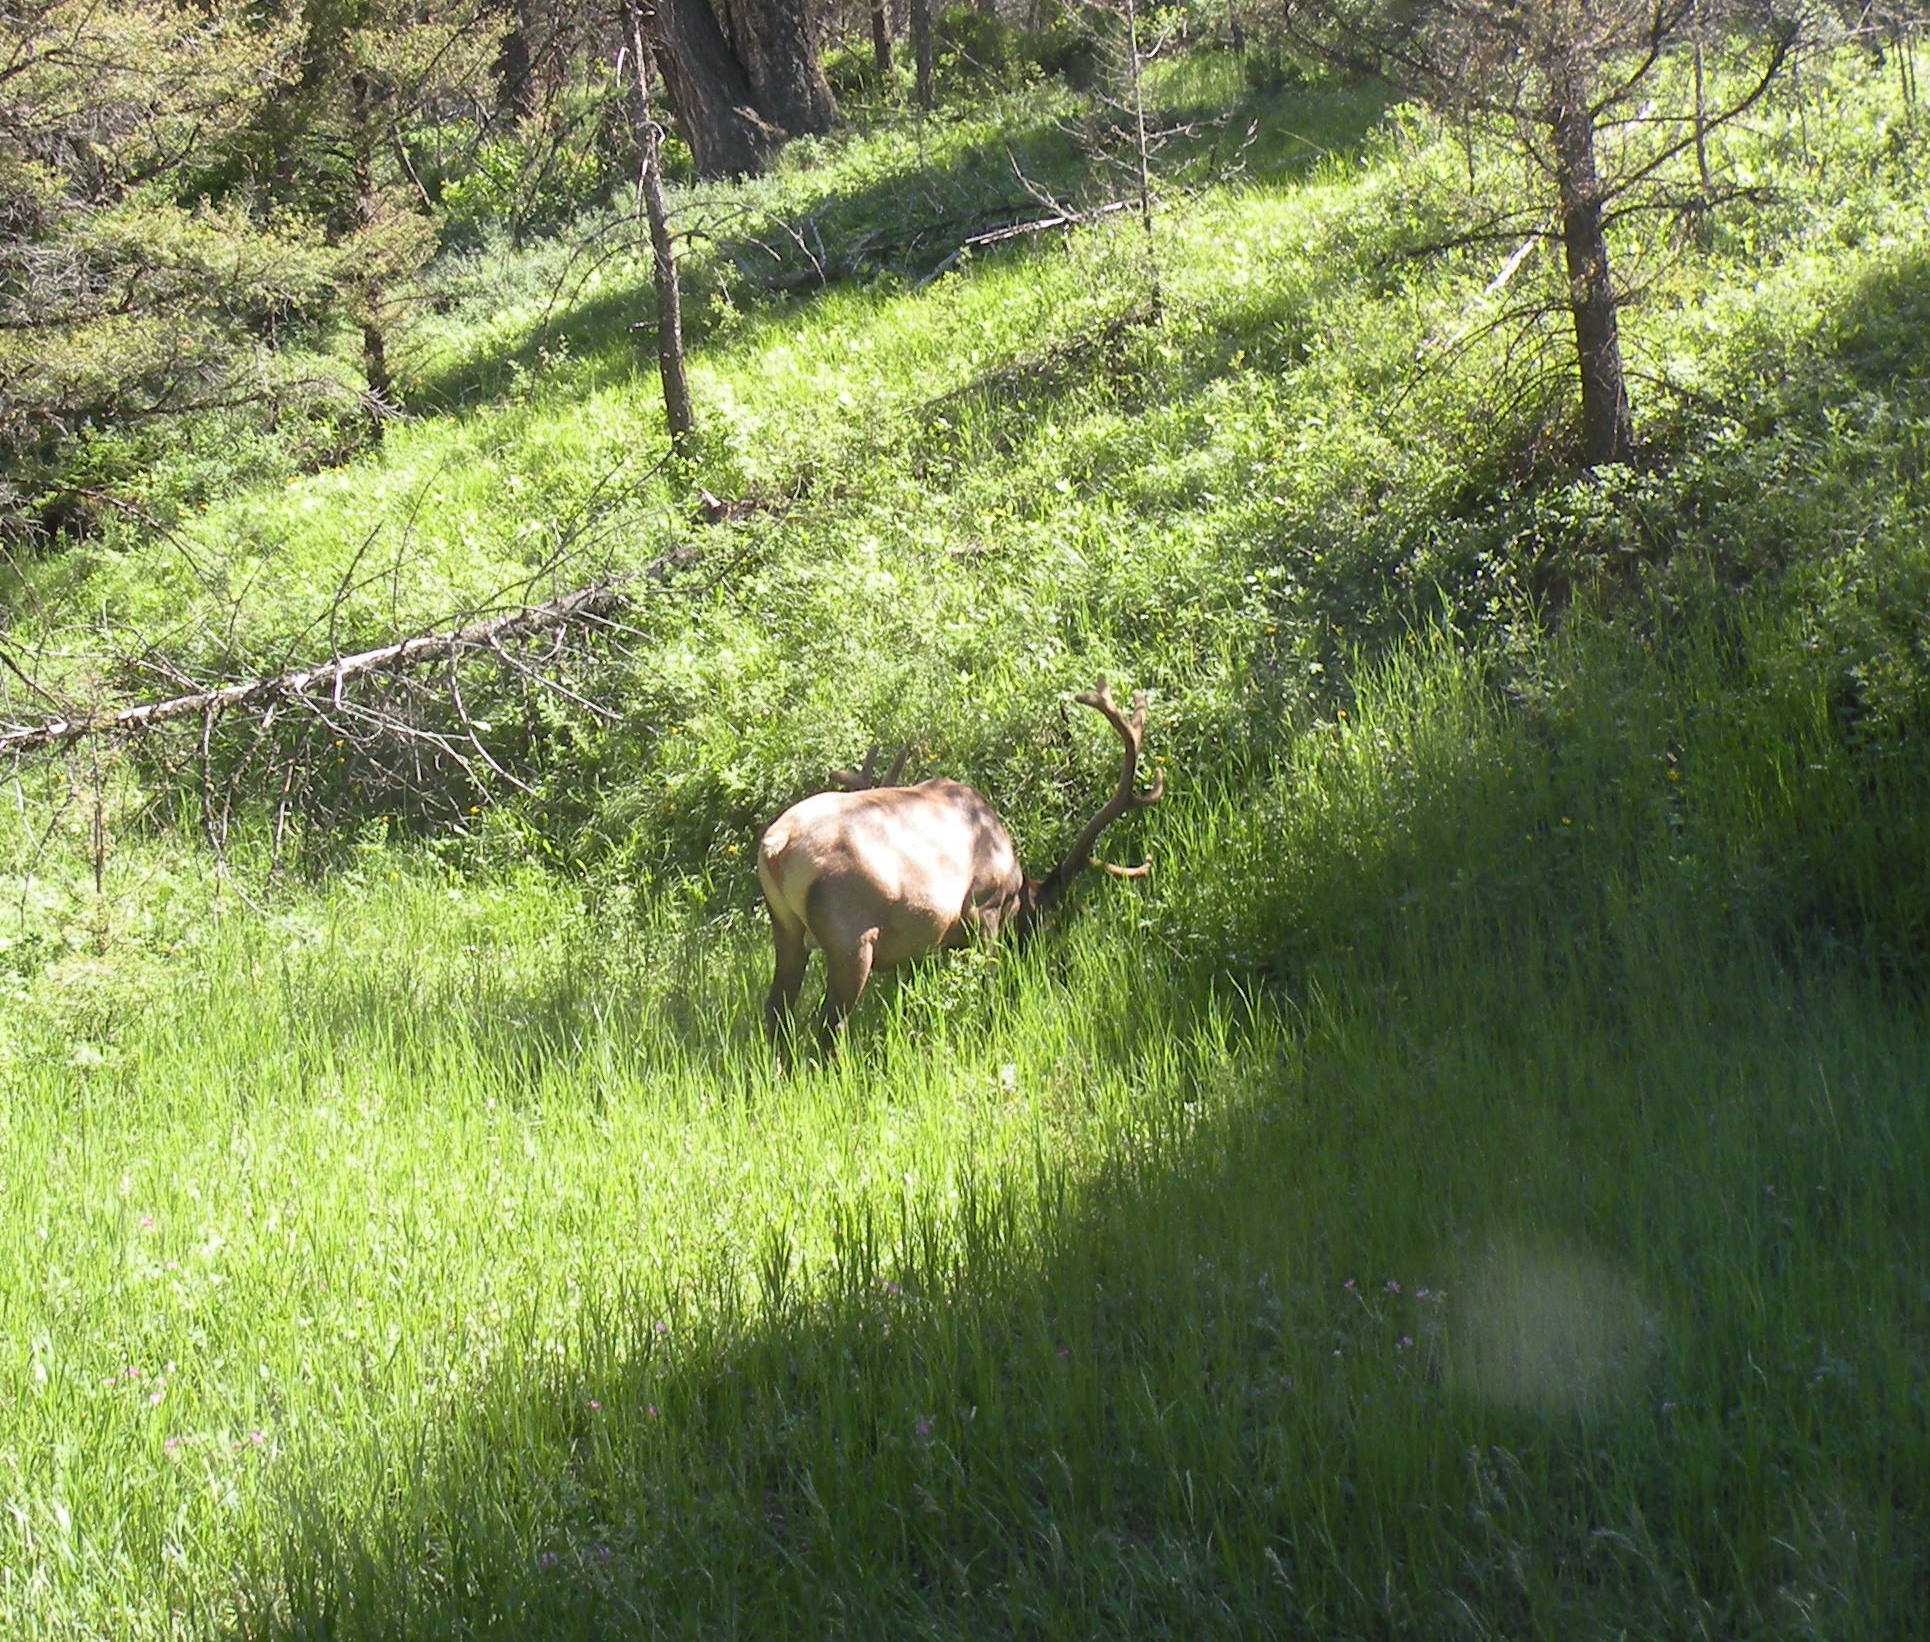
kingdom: Animalia
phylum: Chordata
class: Mammalia
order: Artiodactyla
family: Cervidae
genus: Cervus
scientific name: Cervus elaphus
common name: Red deer
